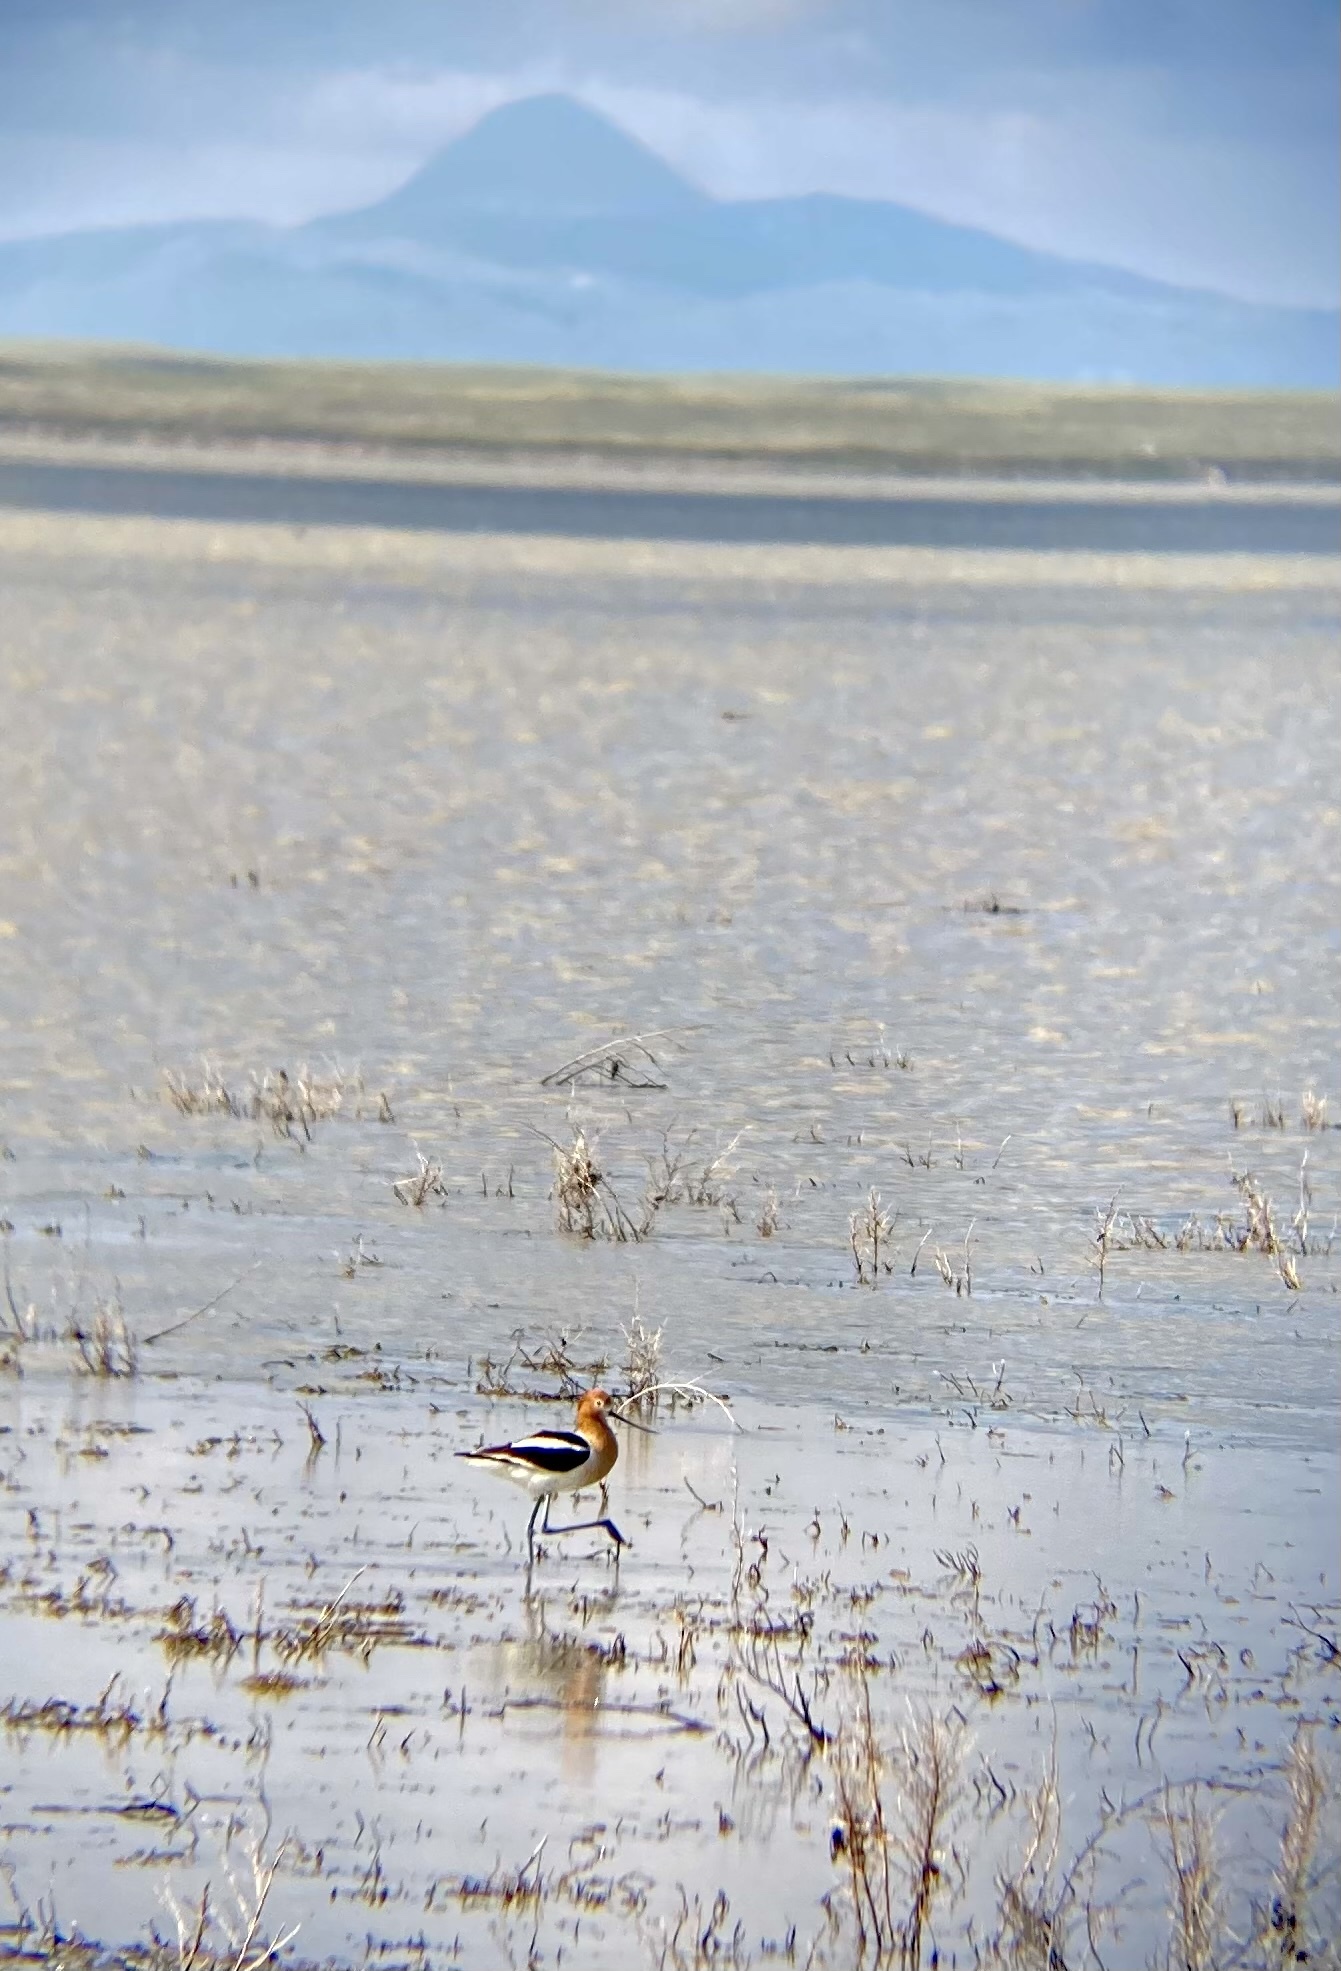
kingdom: Animalia
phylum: Chordata
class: Aves
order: Charadriiformes
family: Recurvirostridae
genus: Recurvirostra
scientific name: Recurvirostra americana
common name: American avocet
